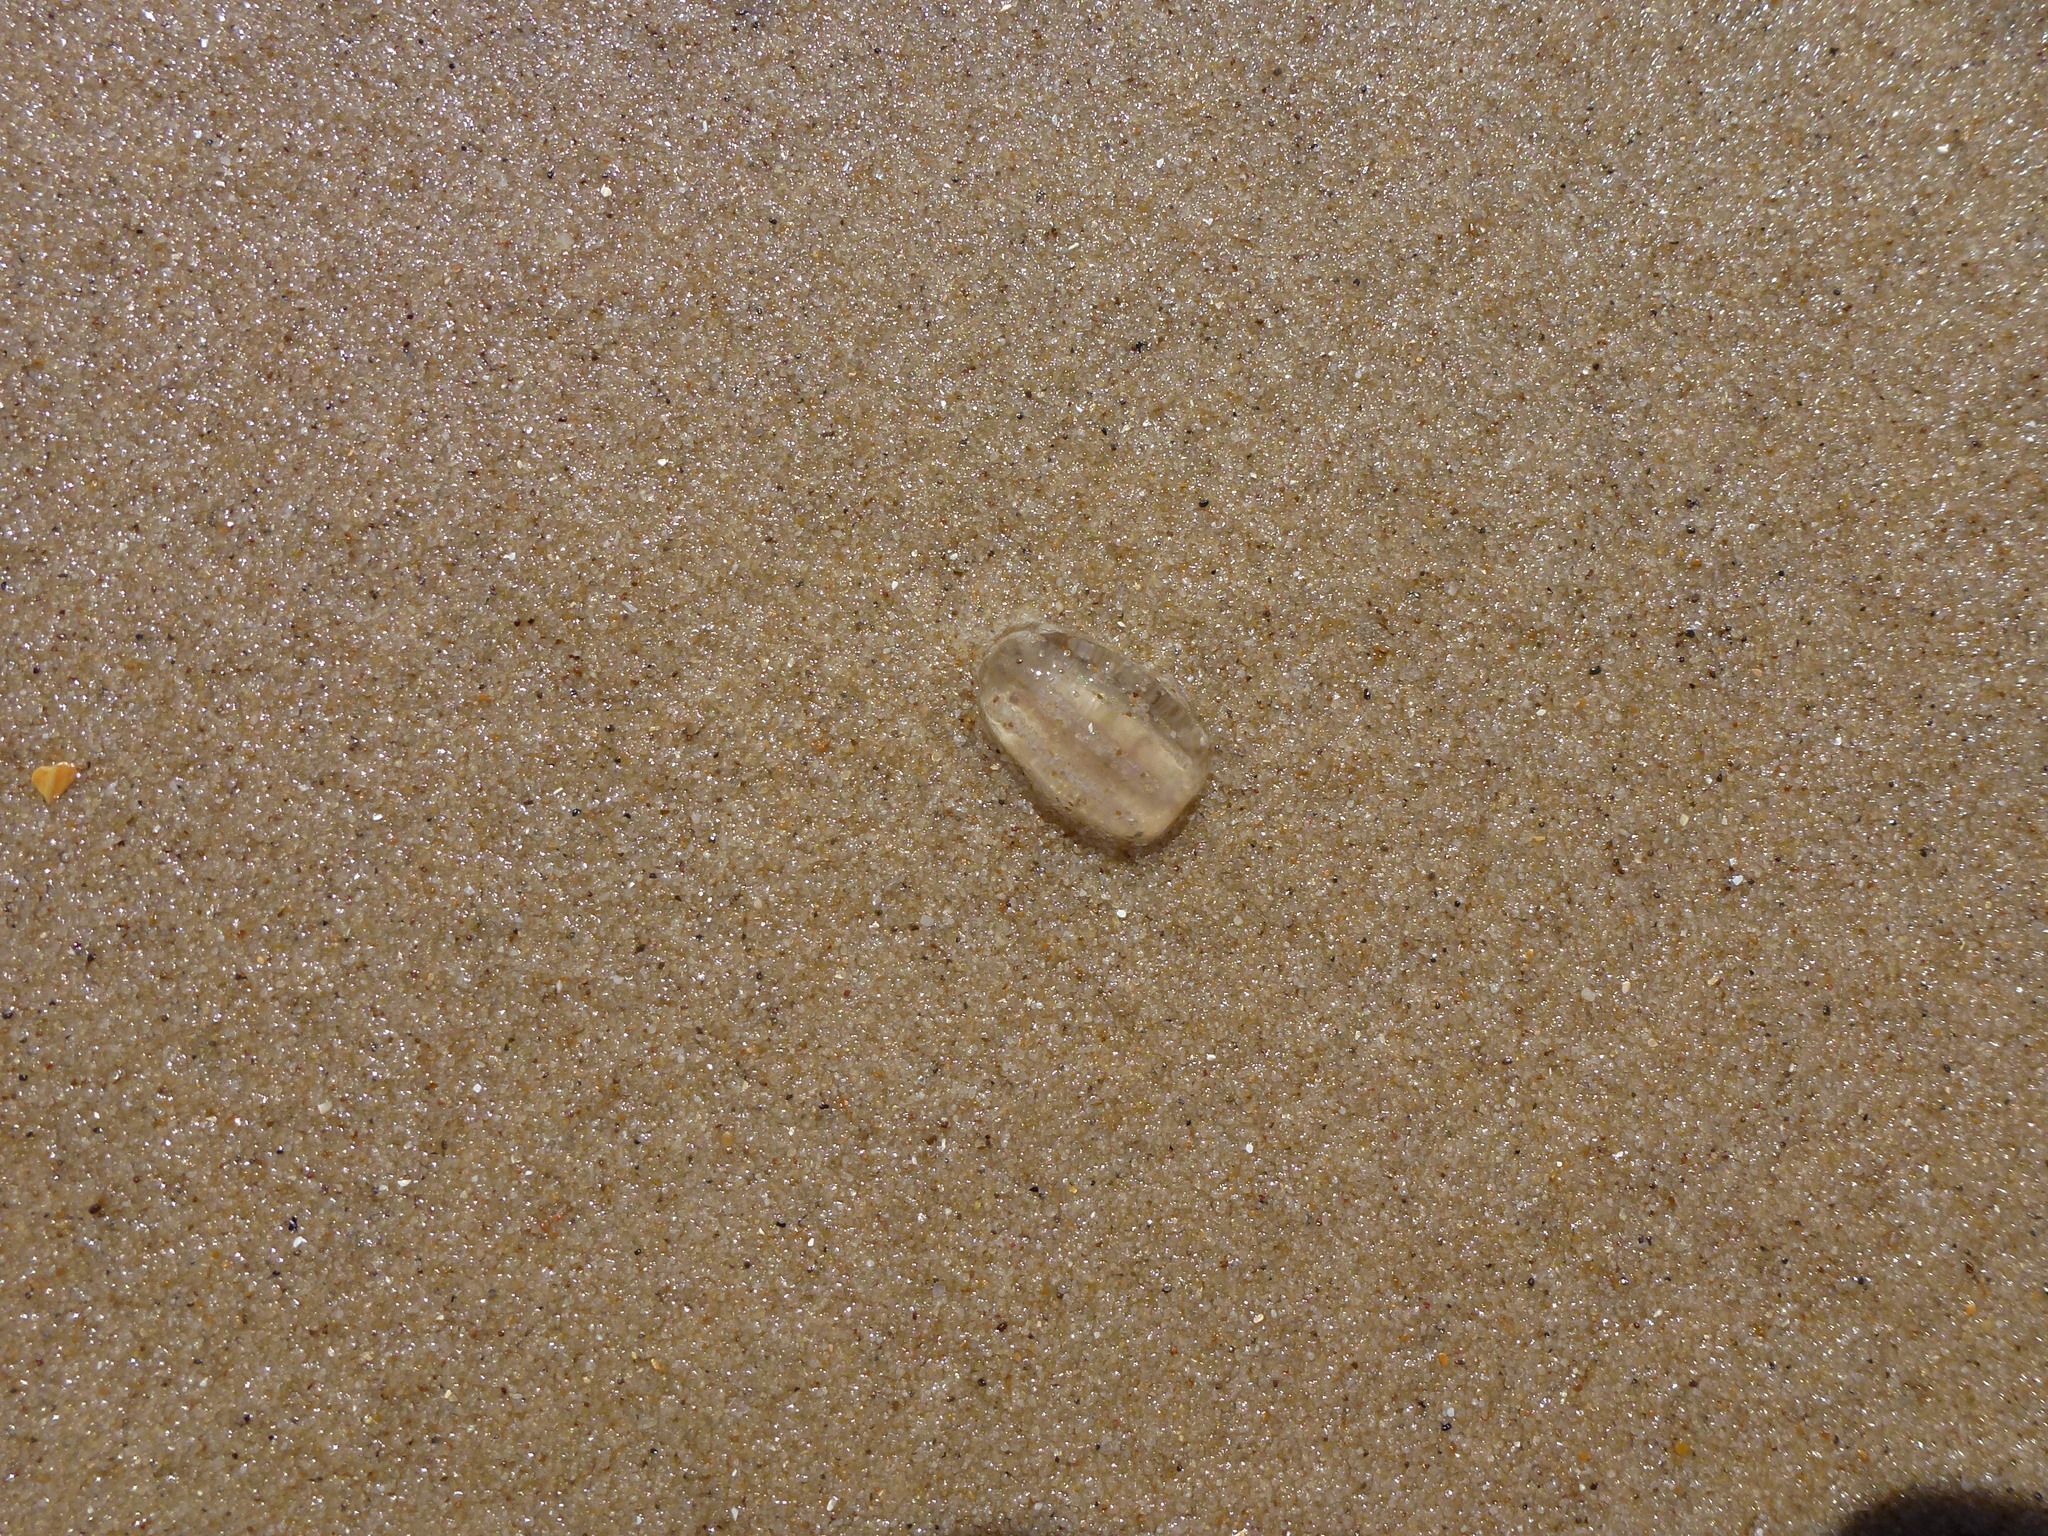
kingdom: Animalia
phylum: Ctenophora
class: Tentaculata
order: Cydippida
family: Pleurobrachiidae
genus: Pleurobrachia
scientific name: Pleurobrachia pileus
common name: Sea gooseberry
